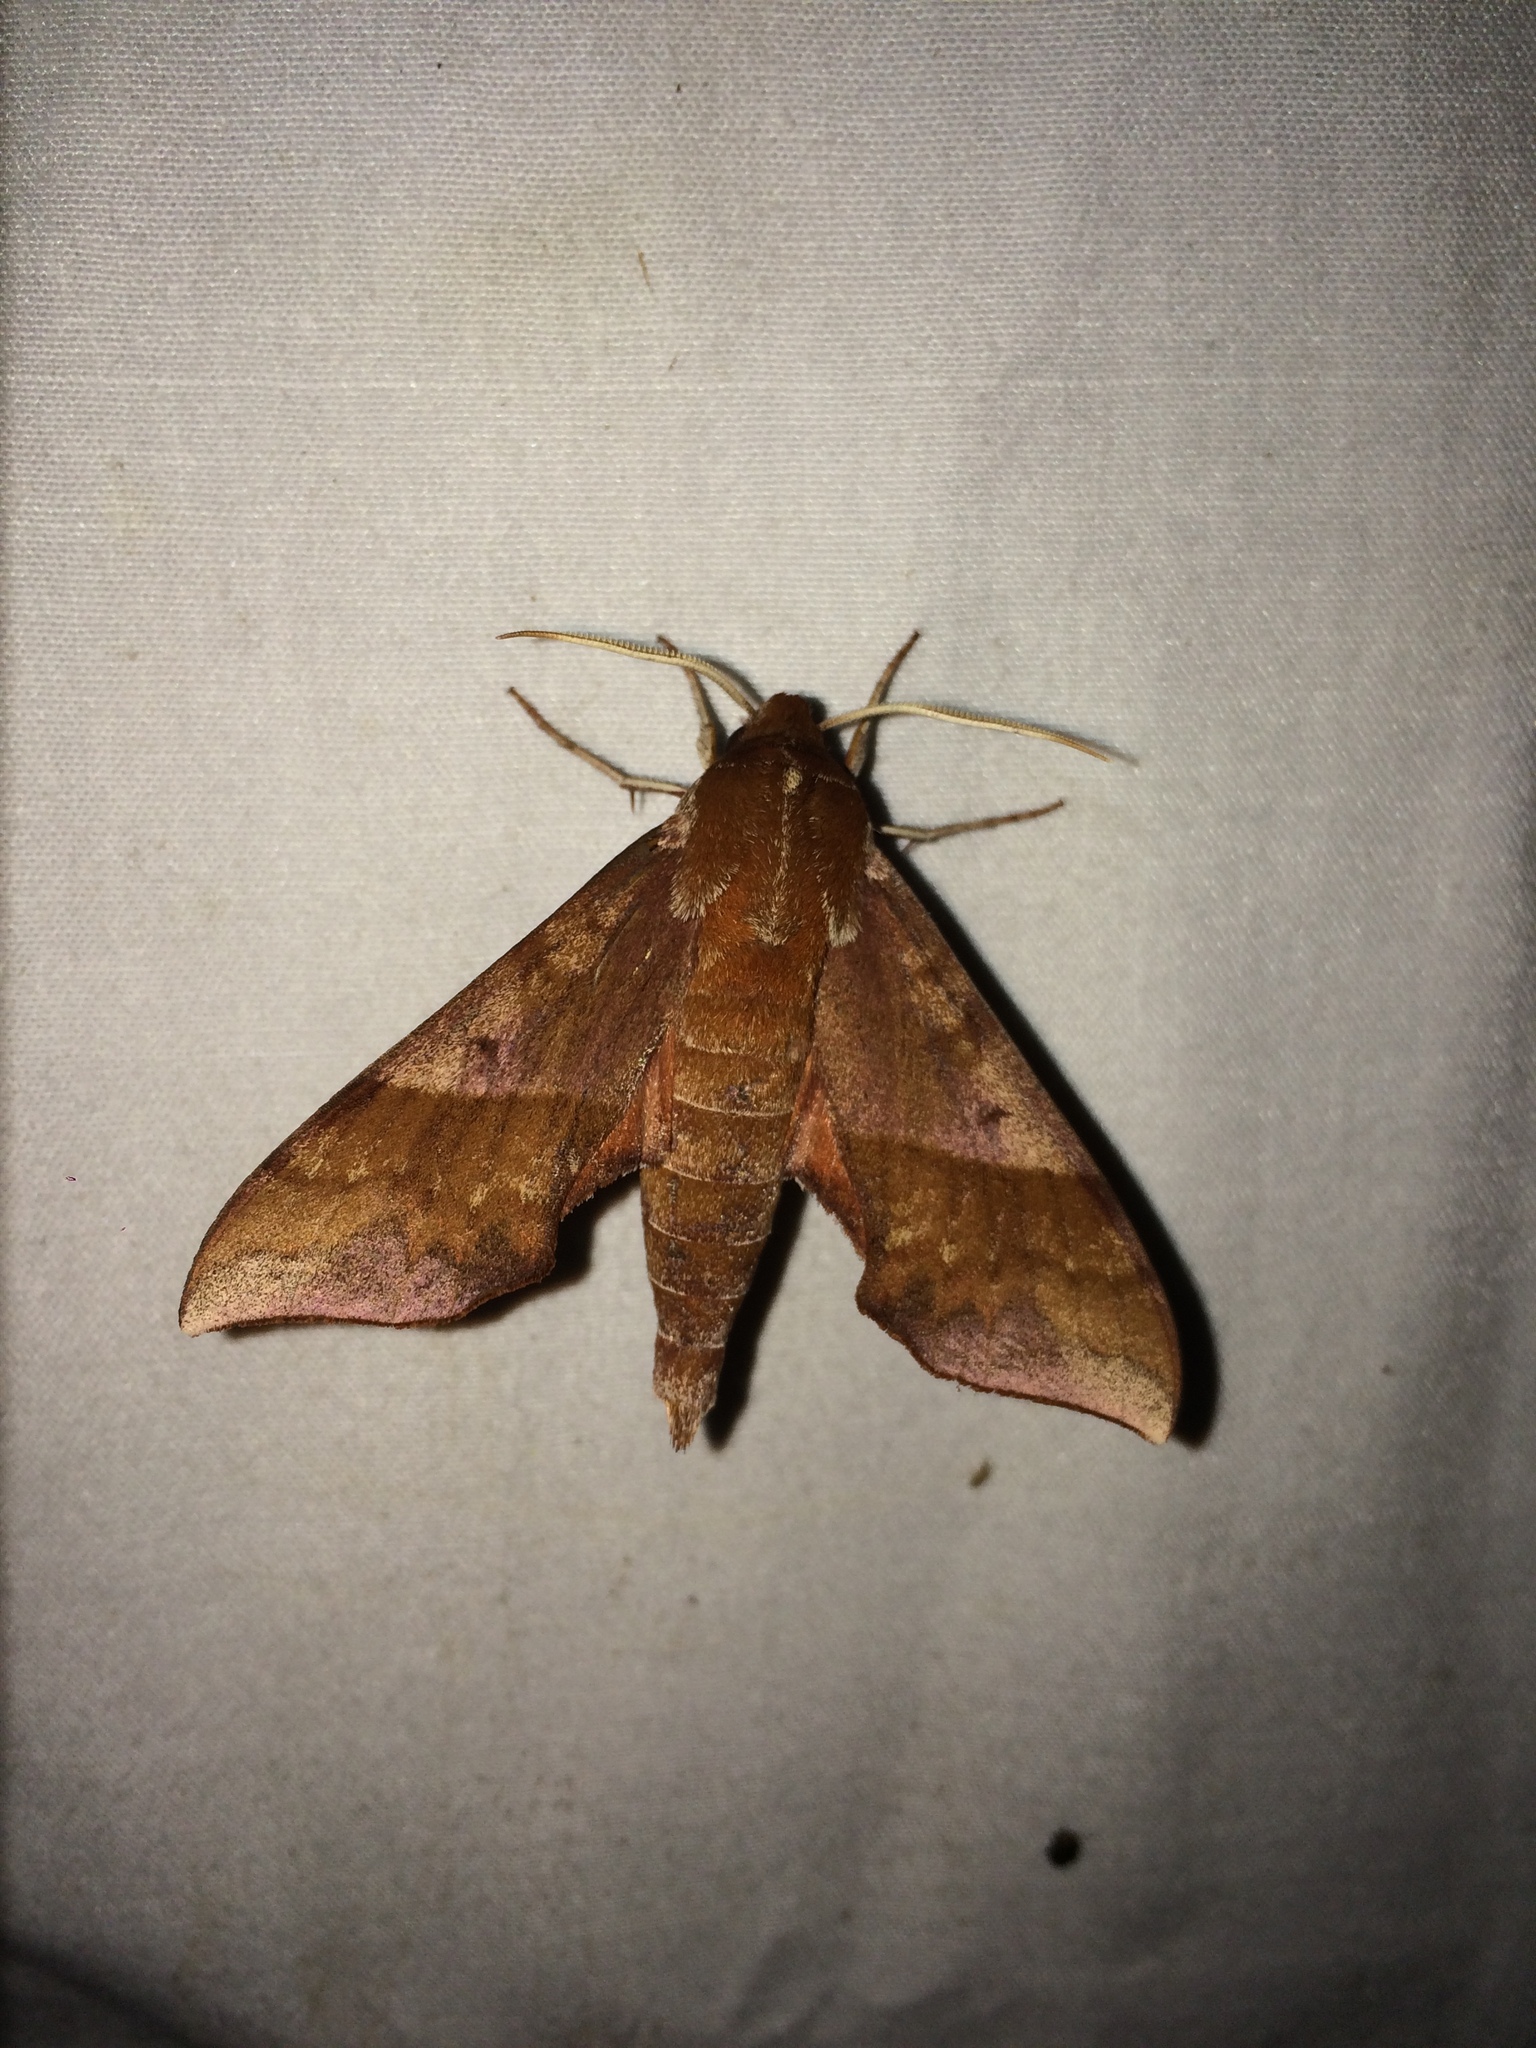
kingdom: Animalia
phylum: Arthropoda
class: Insecta
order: Lepidoptera
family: Sphingidae
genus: Darapsa
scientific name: Darapsa choerilus
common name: Azalea sphinx
